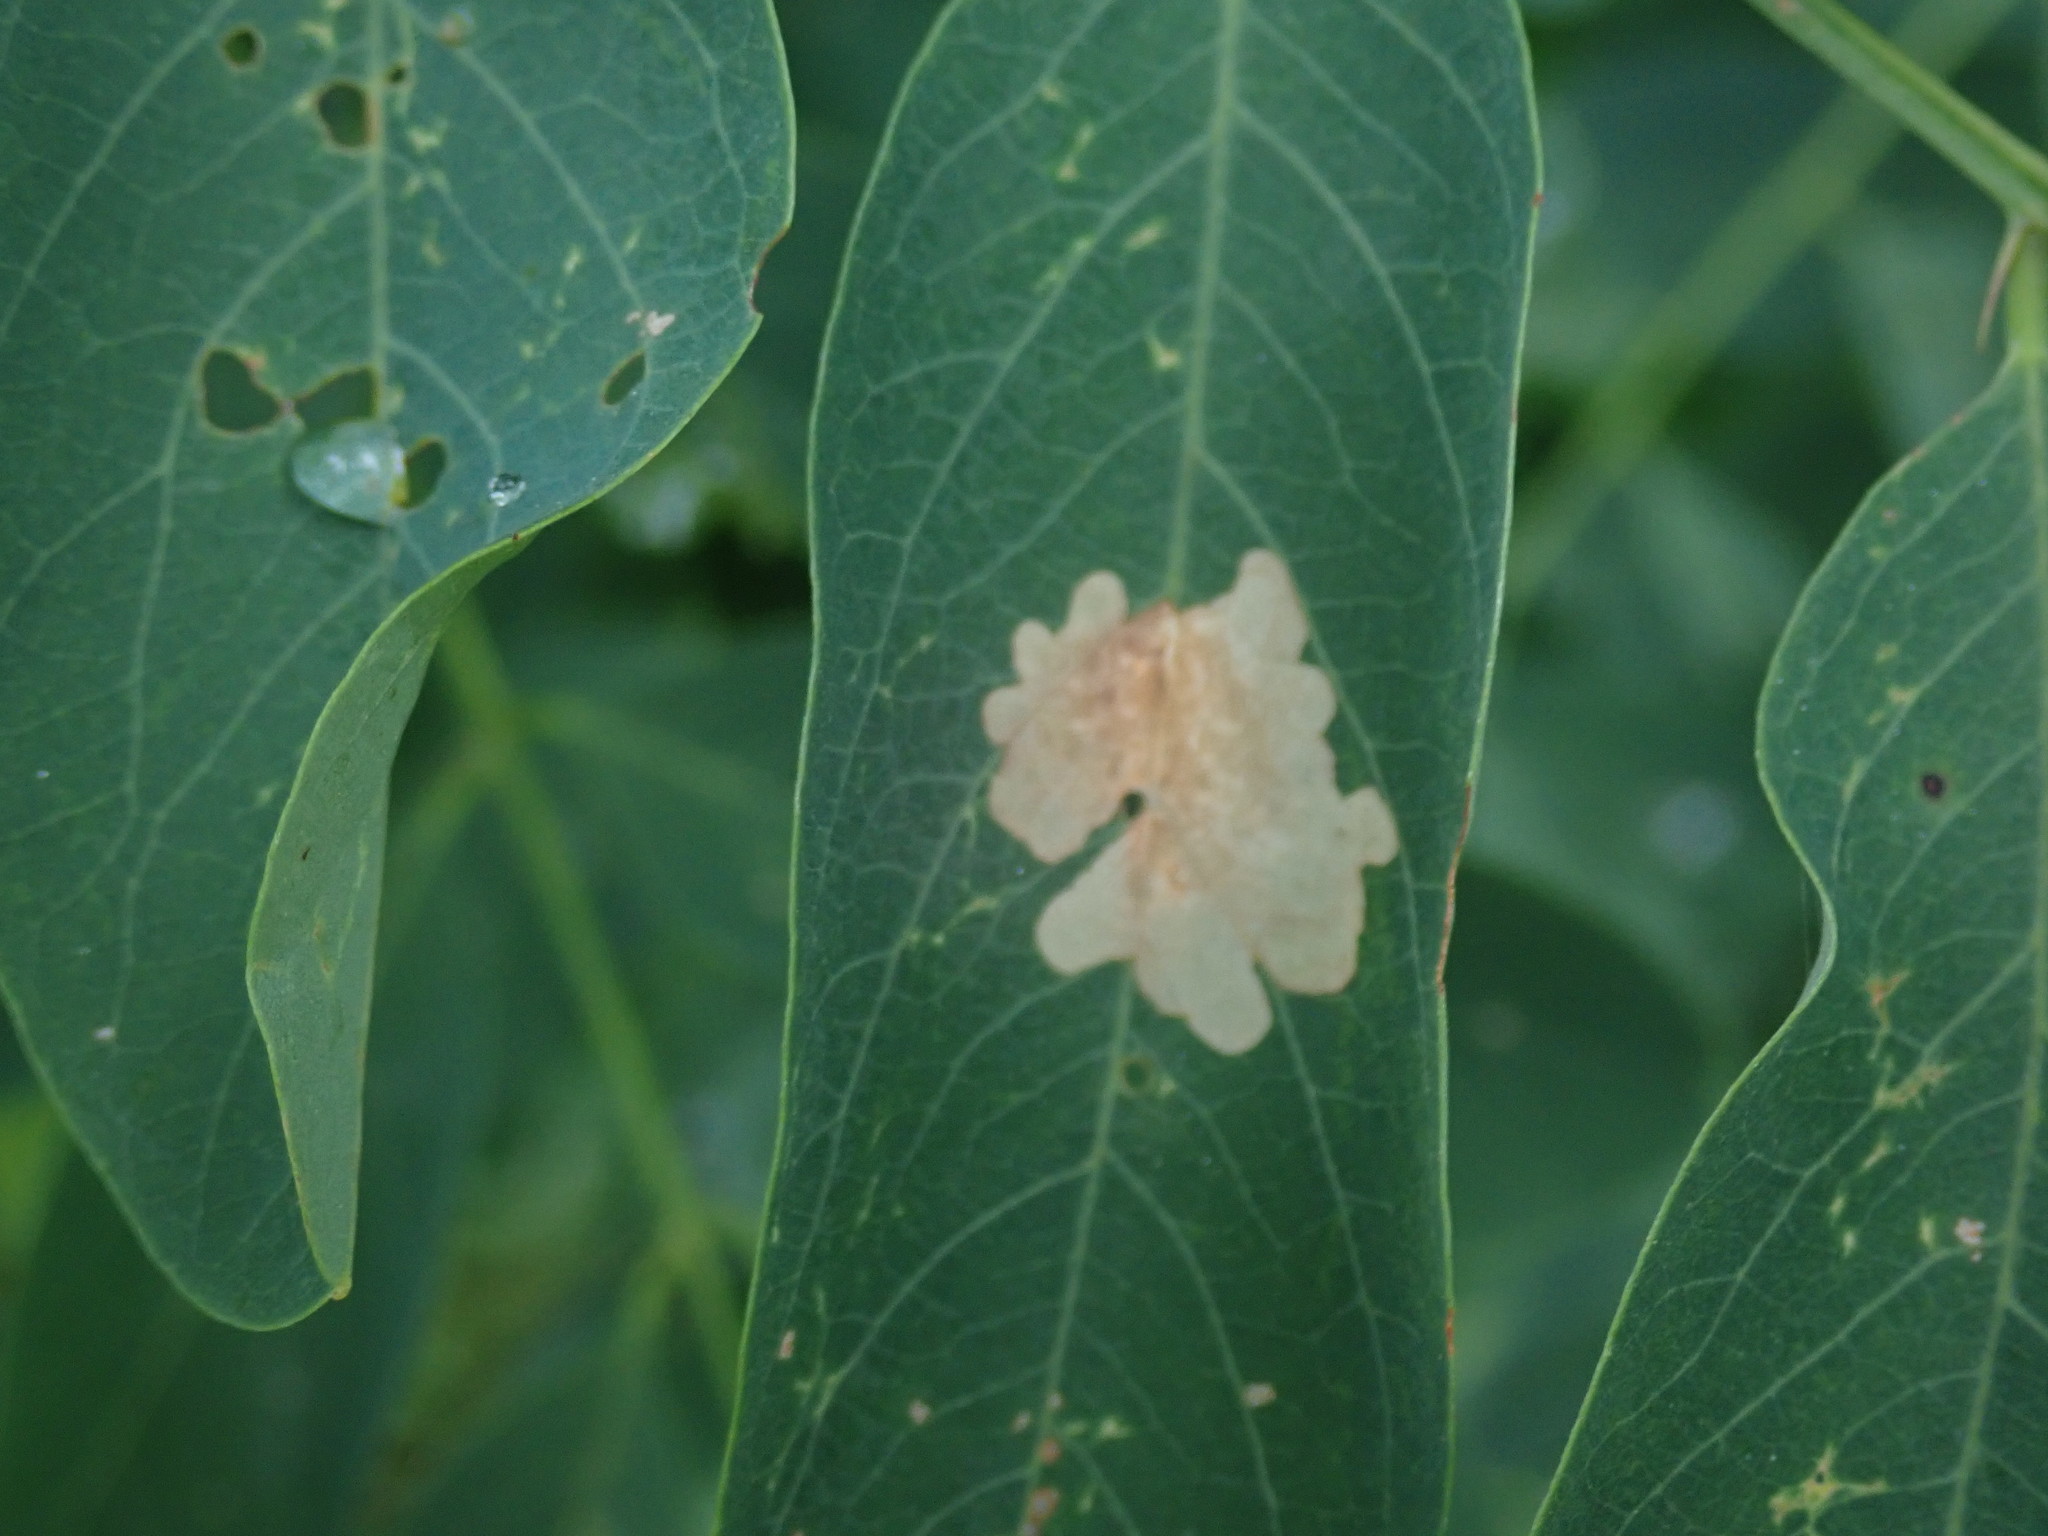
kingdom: Animalia
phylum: Arthropoda
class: Insecta
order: Lepidoptera
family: Gracillariidae
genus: Parectopa
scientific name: Parectopa robiniella
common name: Locust digitate leafminer
